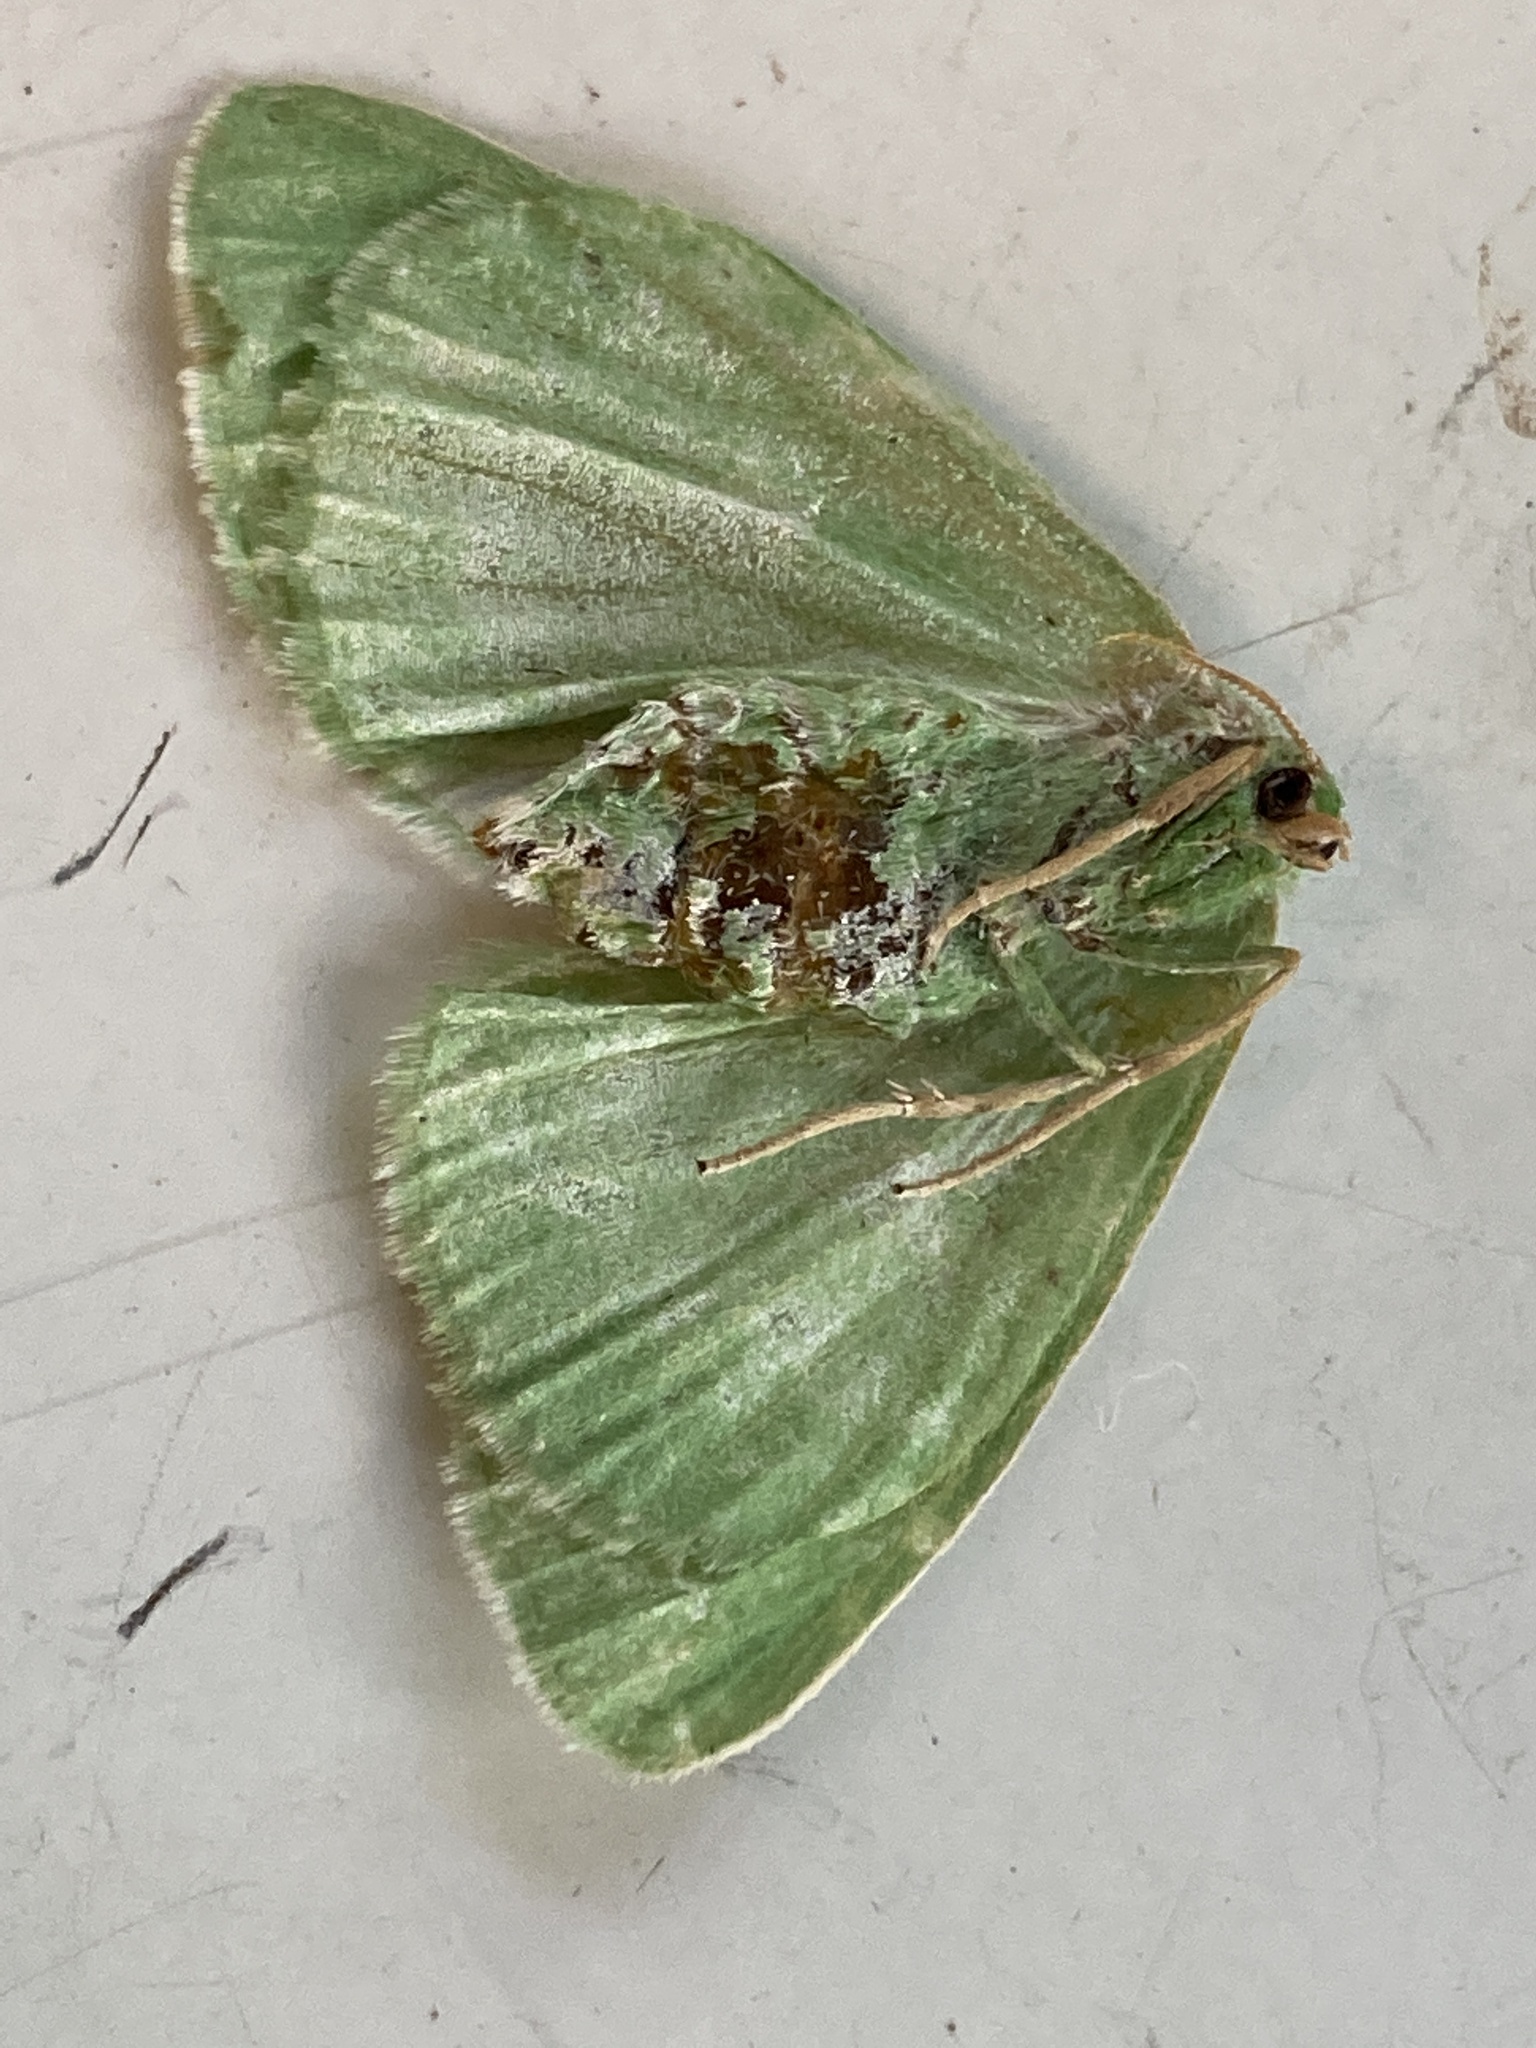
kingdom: Animalia
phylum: Arthropoda
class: Insecta
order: Lepidoptera
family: Geometridae
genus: Thetidia
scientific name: Thetidia smaragdaria
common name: Essex emerald
